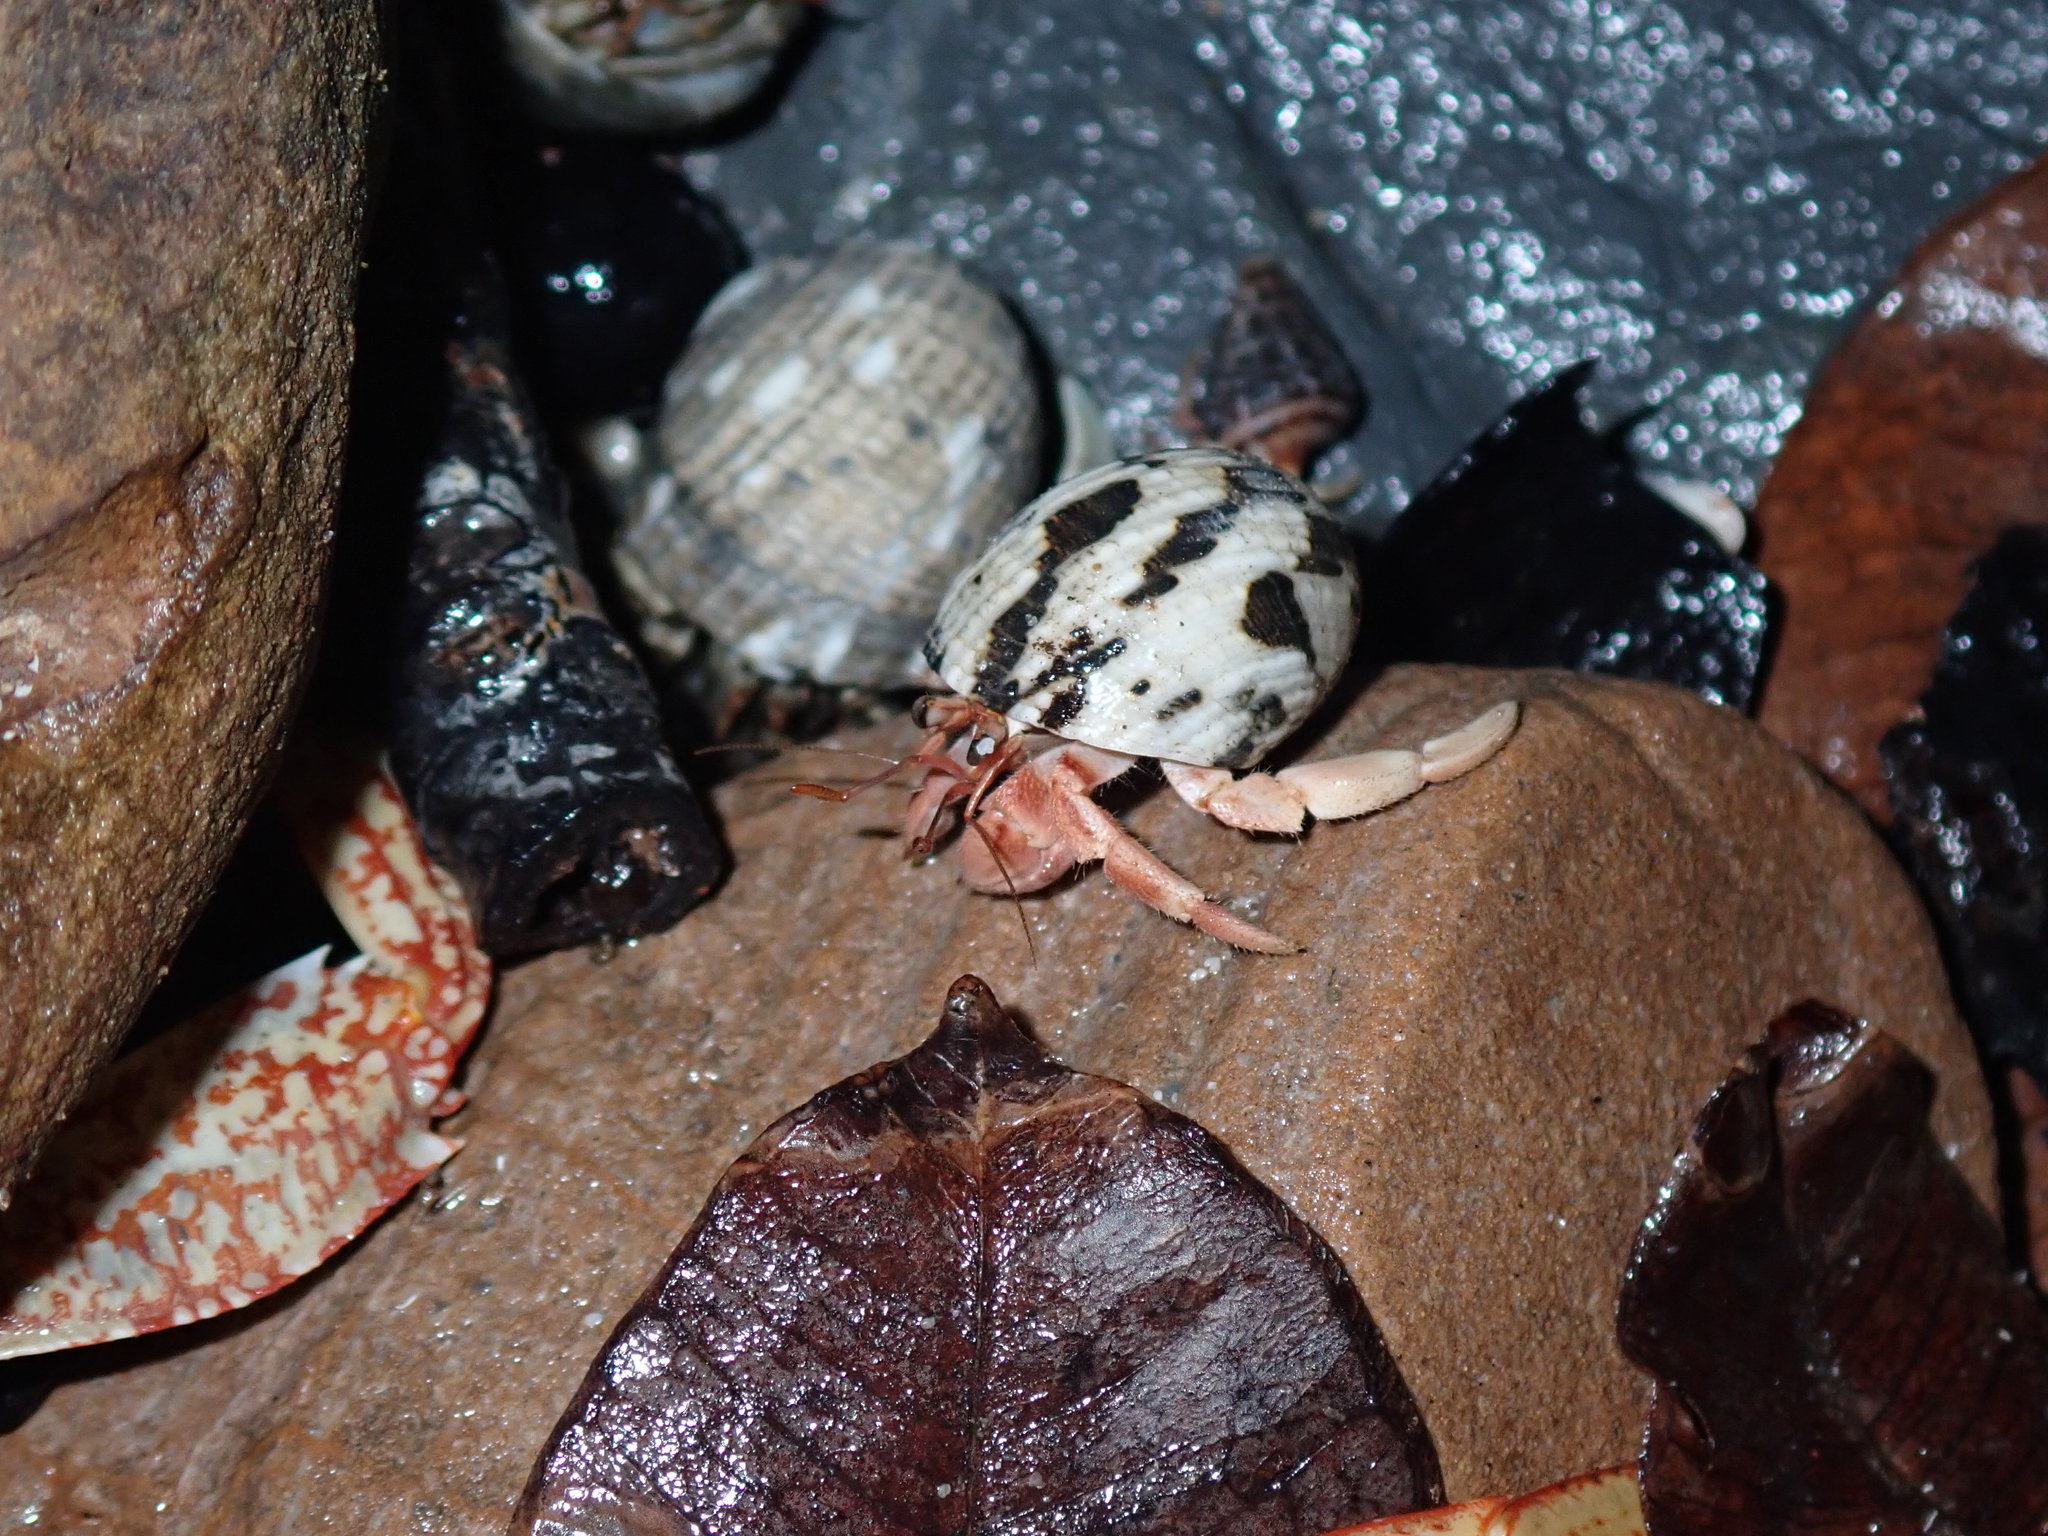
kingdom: Animalia
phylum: Arthropoda
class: Malacostraca
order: Decapoda
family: Coenobitidae
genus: Coenobita
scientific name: Coenobita rugosus
